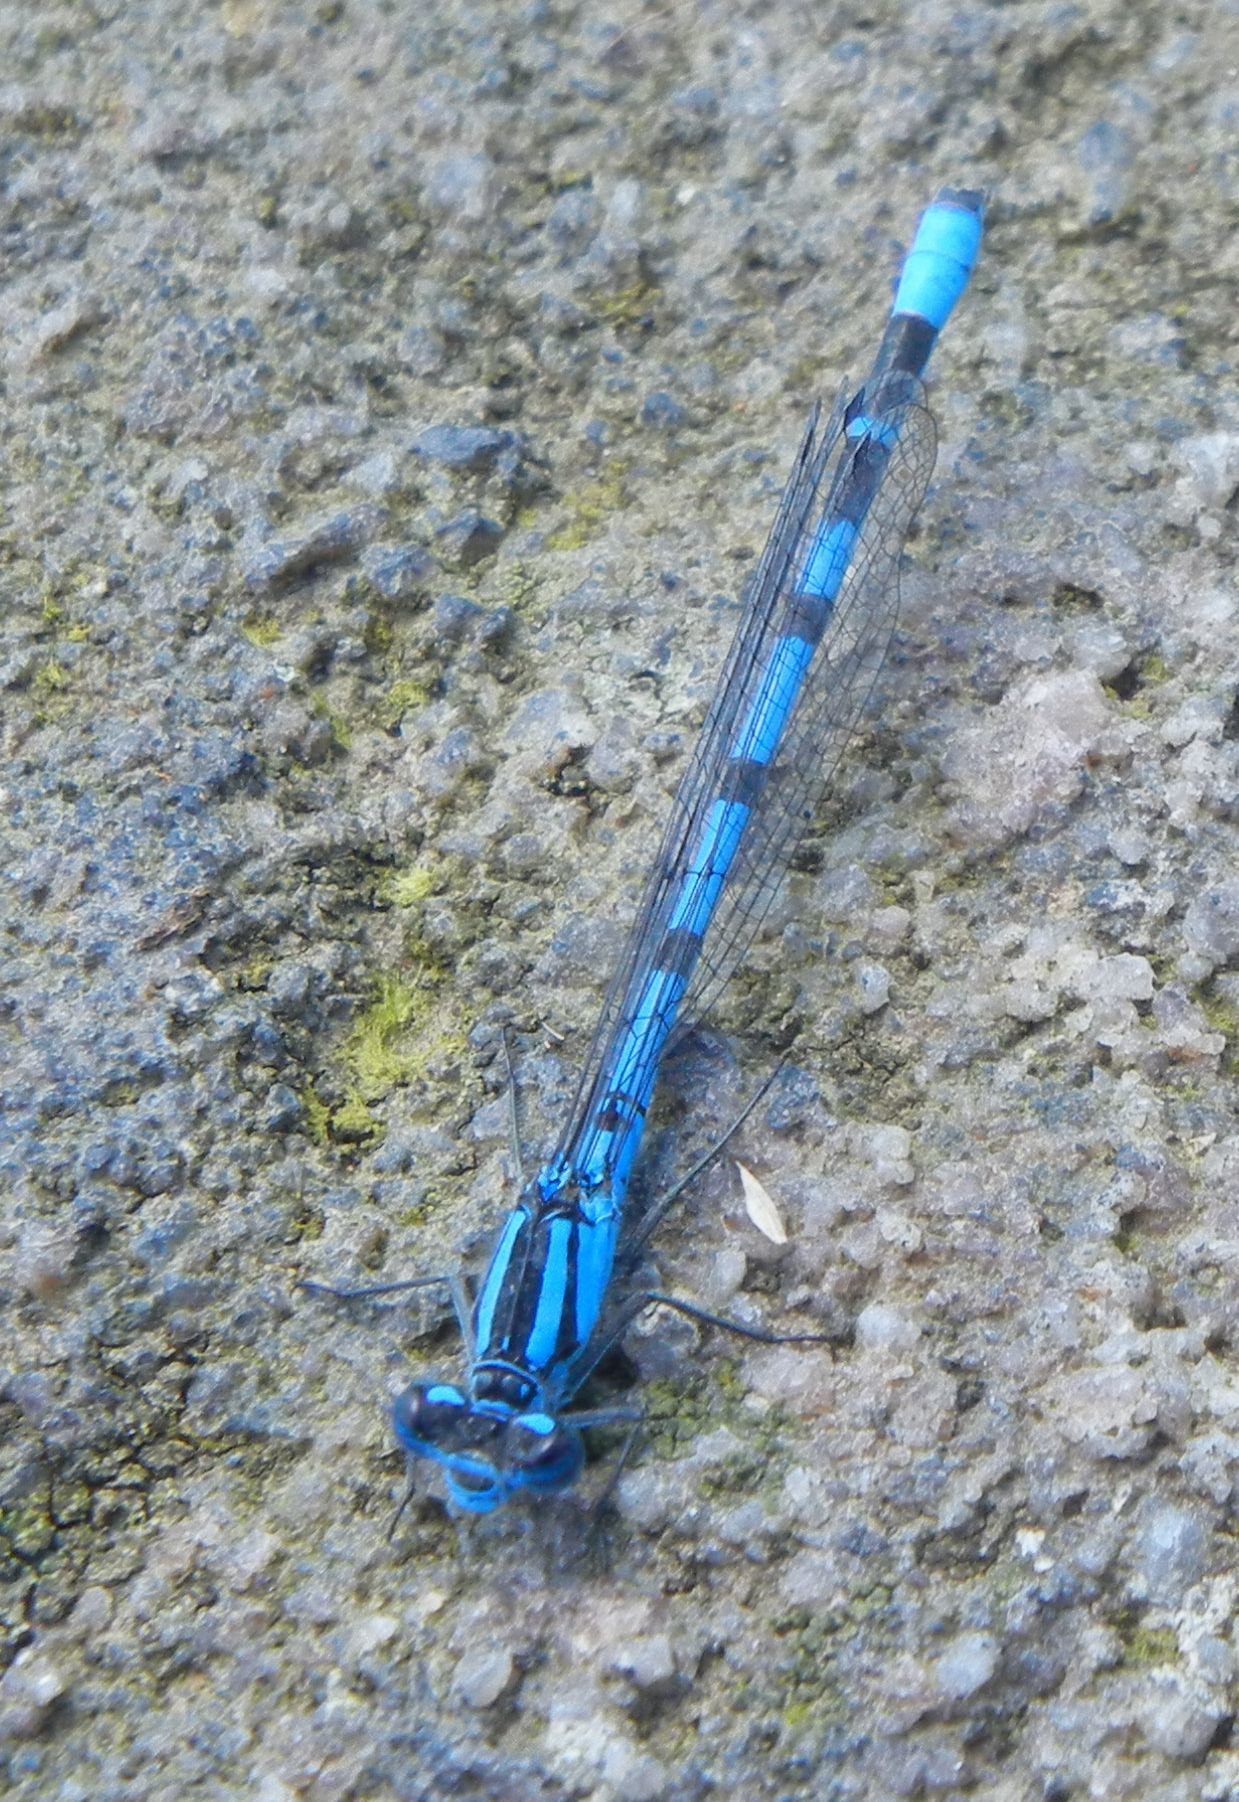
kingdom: Animalia
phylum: Arthropoda
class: Insecta
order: Odonata
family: Coenagrionidae
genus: Enallagma
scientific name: Enallagma cyathigerum
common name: Common blue damselfly
